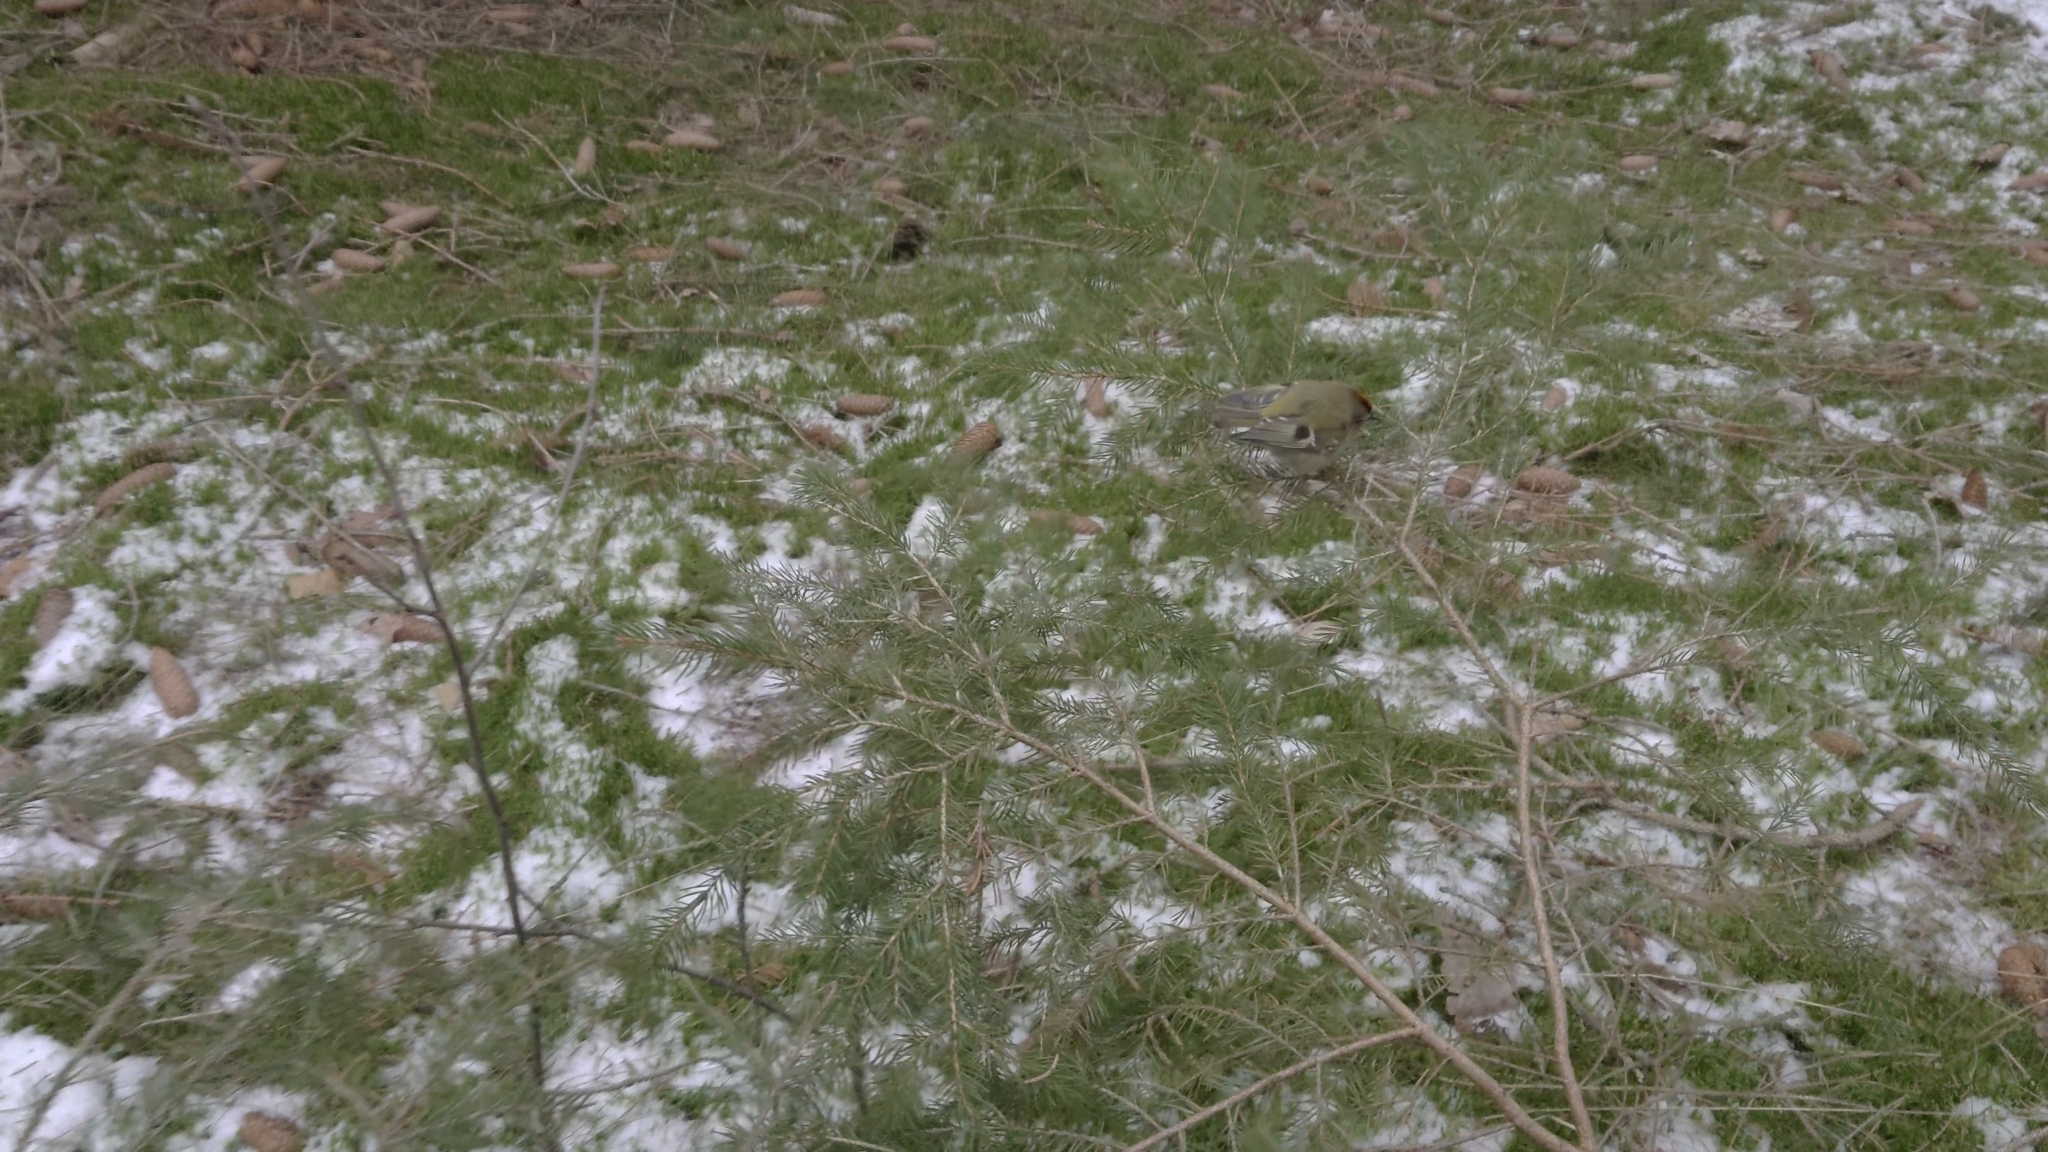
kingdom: Animalia
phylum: Chordata
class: Aves
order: Passeriformes
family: Regulidae
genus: Regulus
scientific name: Regulus regulus
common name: Goldcrest
